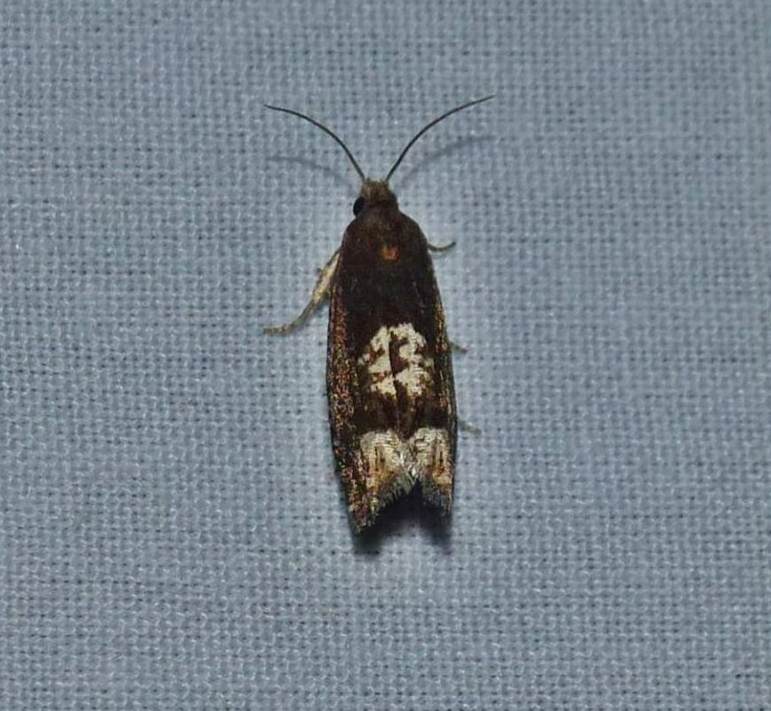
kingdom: Animalia
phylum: Arthropoda
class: Insecta
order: Lepidoptera
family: Tortricidae
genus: Eucosma
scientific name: Eucosma parmatana
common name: Aster eucosma moth
